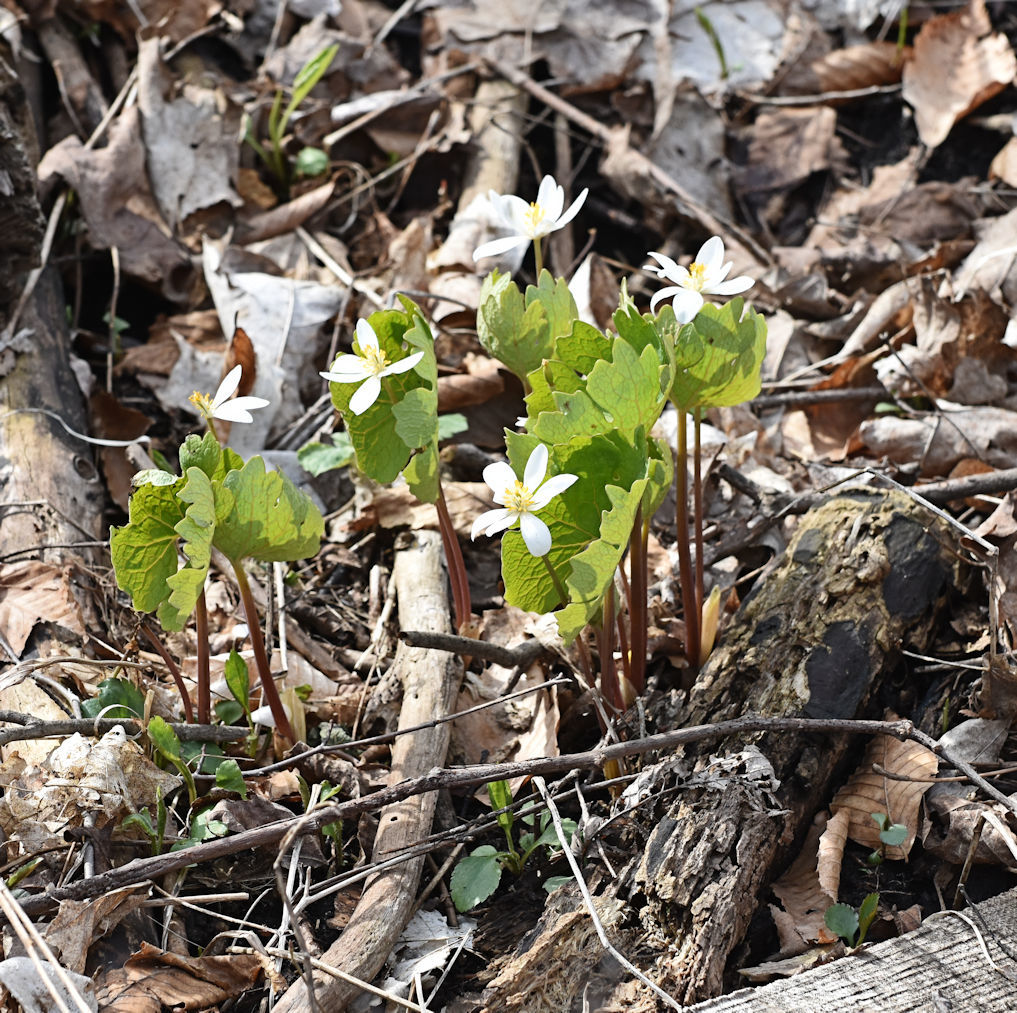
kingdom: Plantae
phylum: Tracheophyta
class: Magnoliopsida
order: Ranunculales
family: Papaveraceae
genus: Sanguinaria
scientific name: Sanguinaria canadensis
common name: Bloodroot
